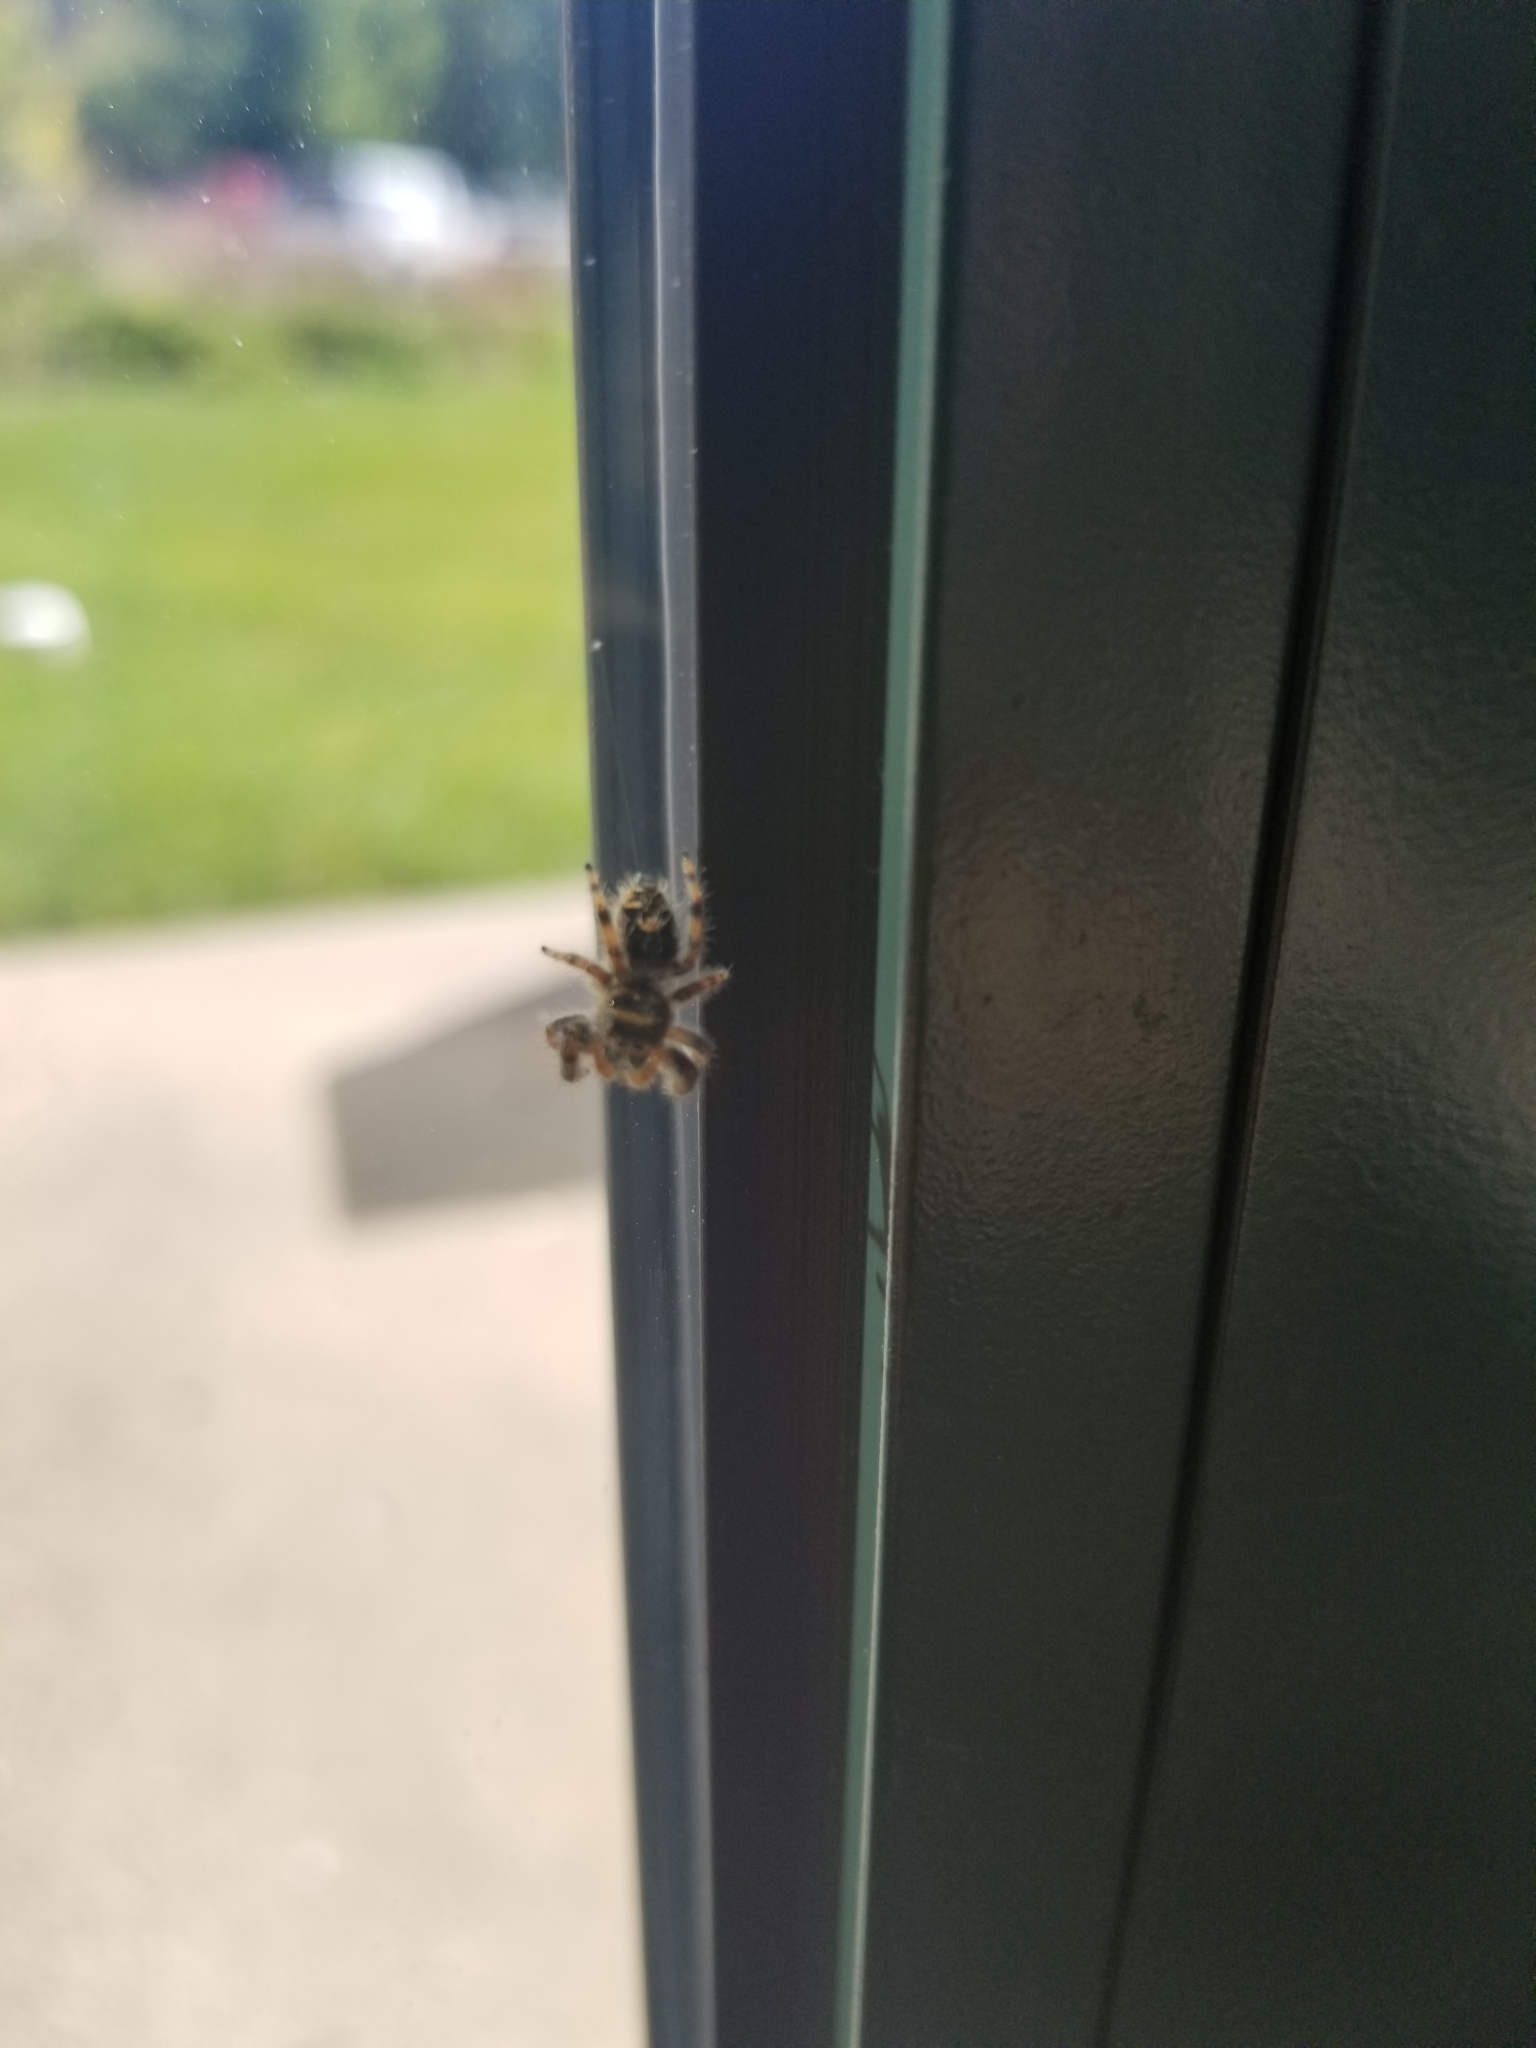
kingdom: Animalia
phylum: Arthropoda
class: Arachnida
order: Araneae
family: Salticidae
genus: Phidippus
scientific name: Phidippus audax
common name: Bold jumper
